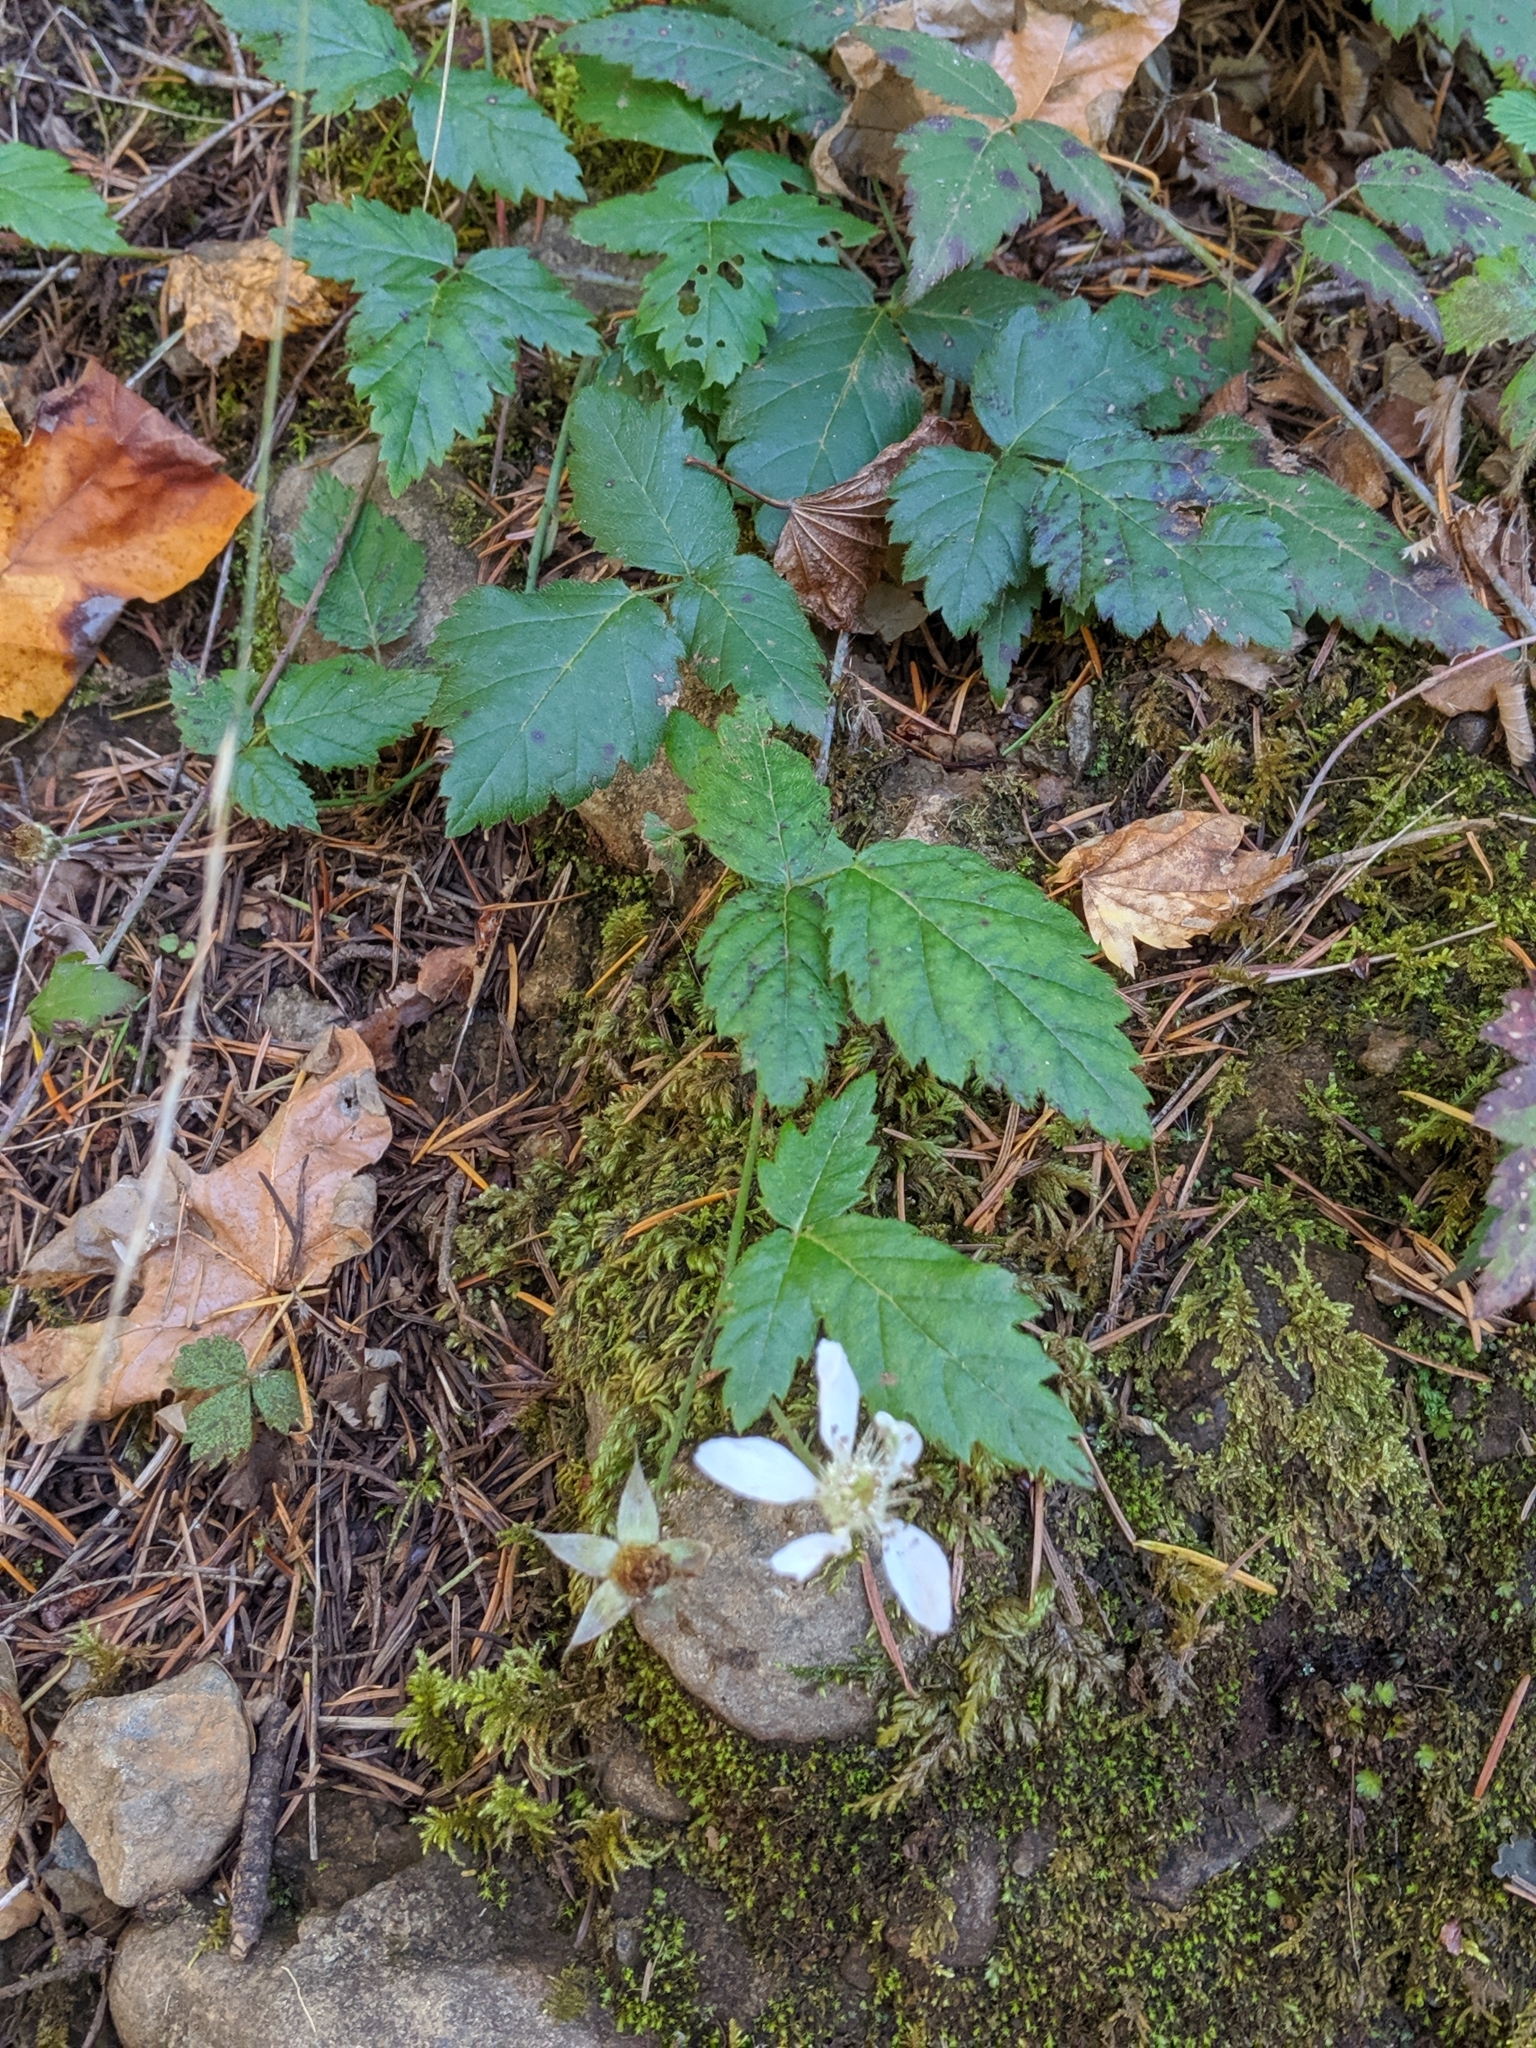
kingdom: Plantae
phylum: Tracheophyta
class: Magnoliopsida
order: Rosales
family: Rosaceae
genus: Rubus
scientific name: Rubus ursinus
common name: Pacific blackberry
